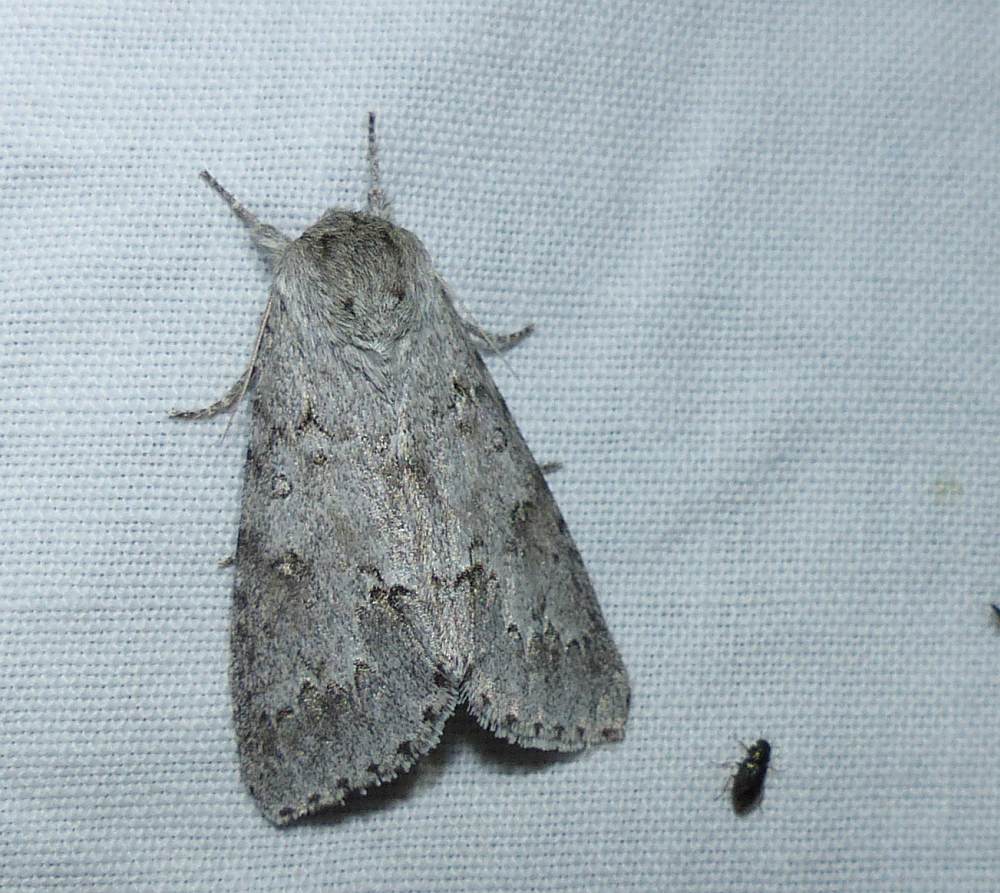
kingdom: Animalia
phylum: Arthropoda
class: Insecta
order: Lepidoptera
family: Noctuidae
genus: Acronicta
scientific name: Acronicta insita
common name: Large gray dagger
